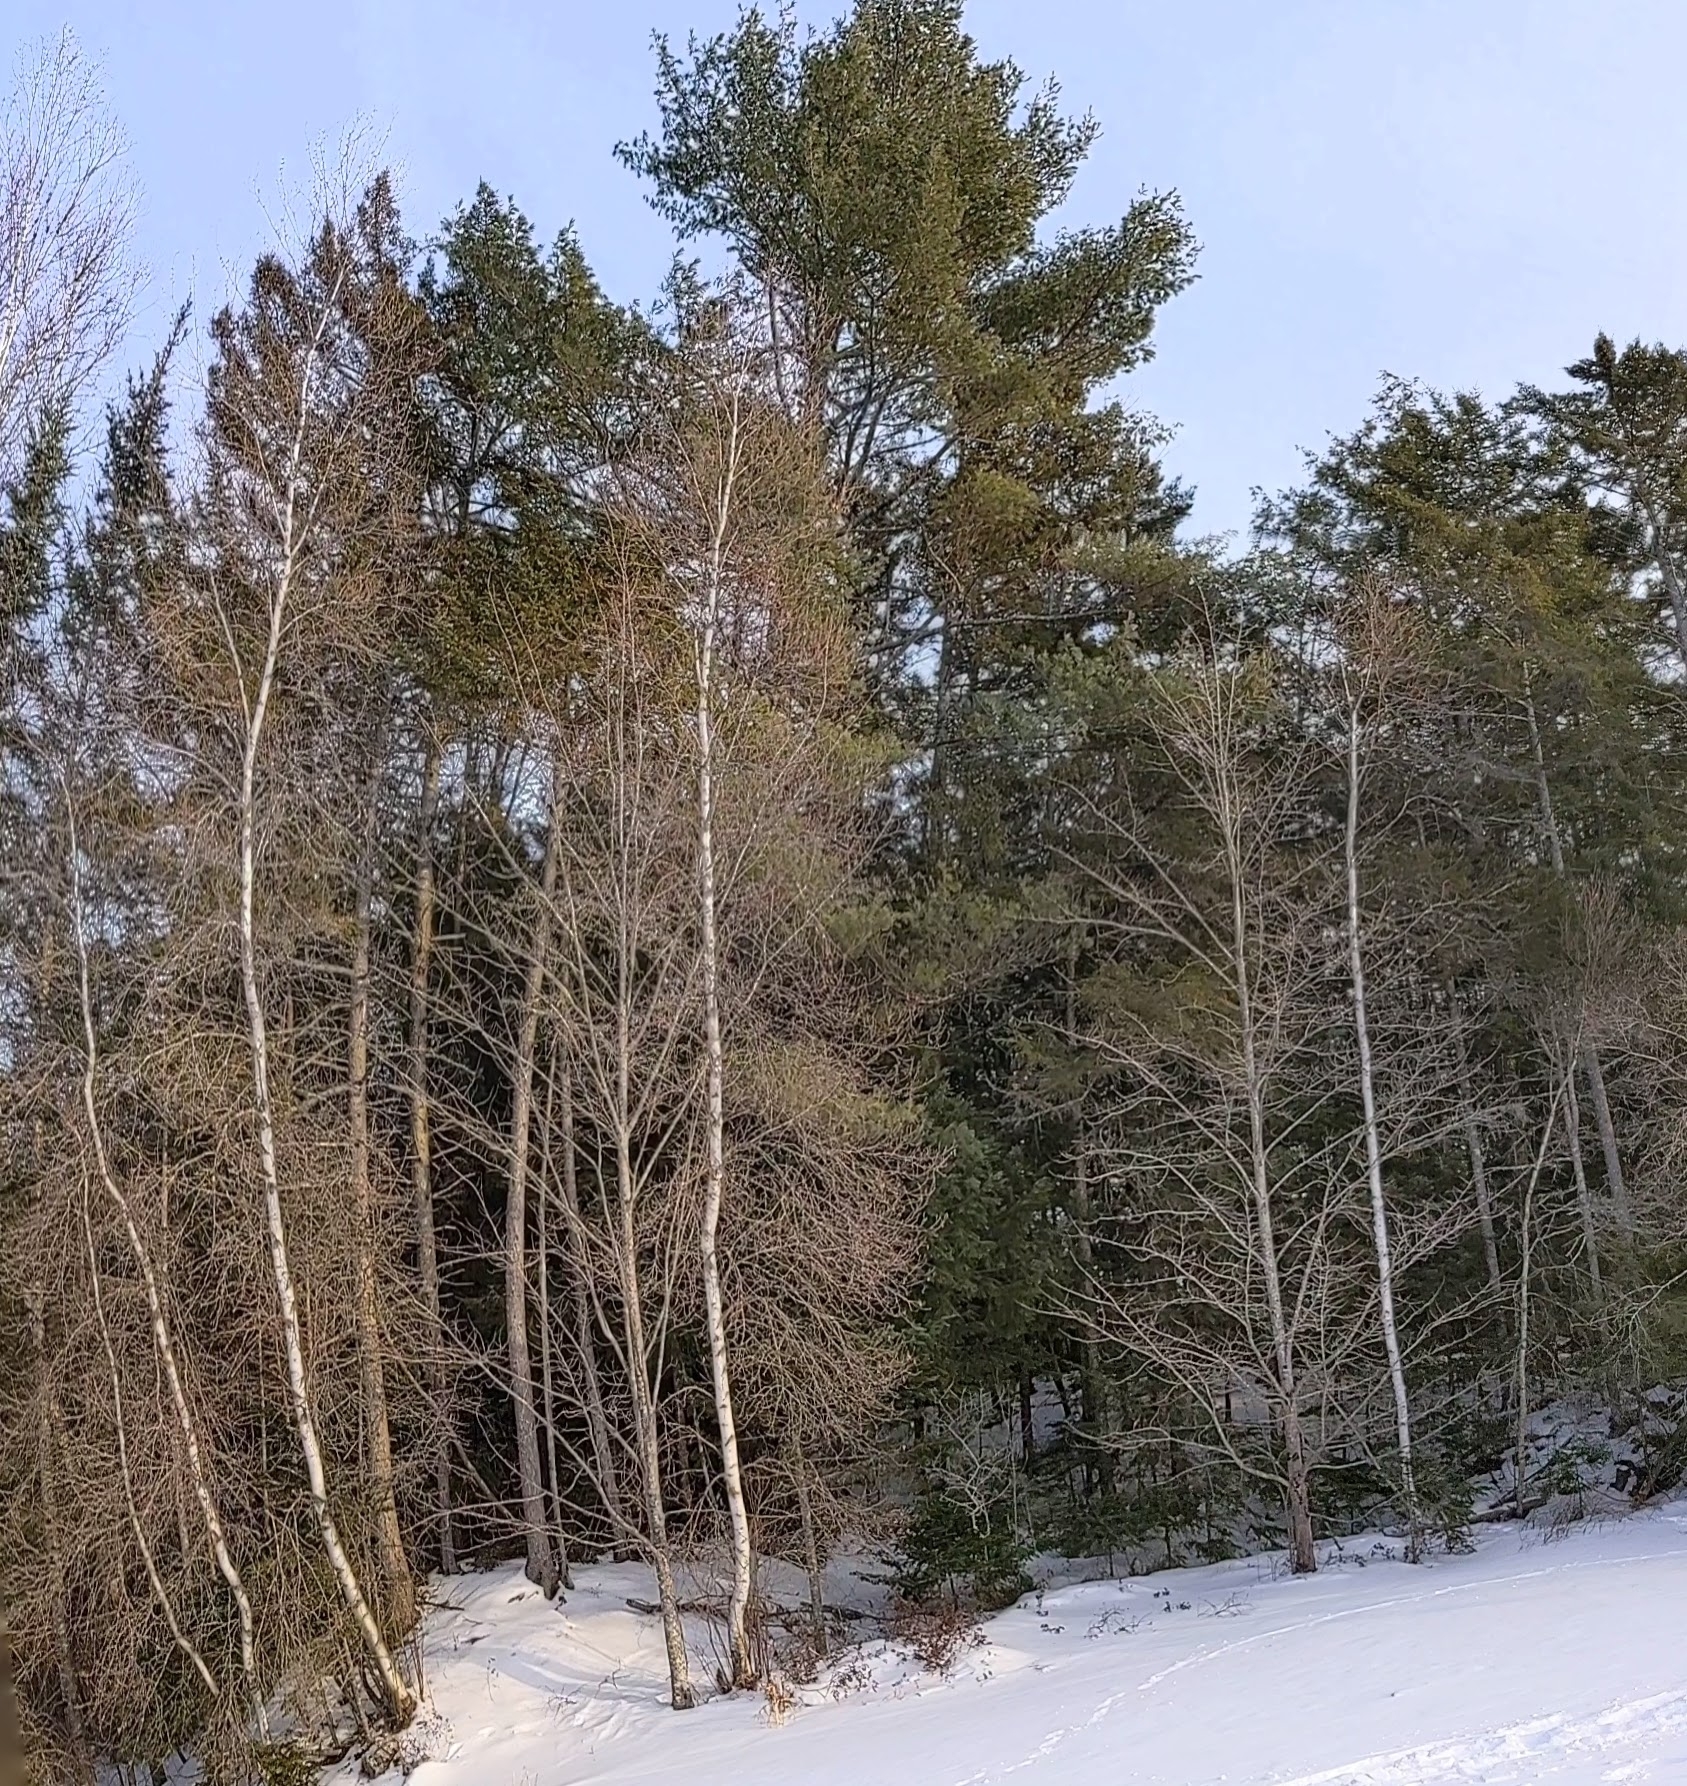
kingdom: Plantae
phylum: Tracheophyta
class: Pinopsida
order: Pinales
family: Pinaceae
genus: Pinus
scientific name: Pinus strobus
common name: Weymouth pine
